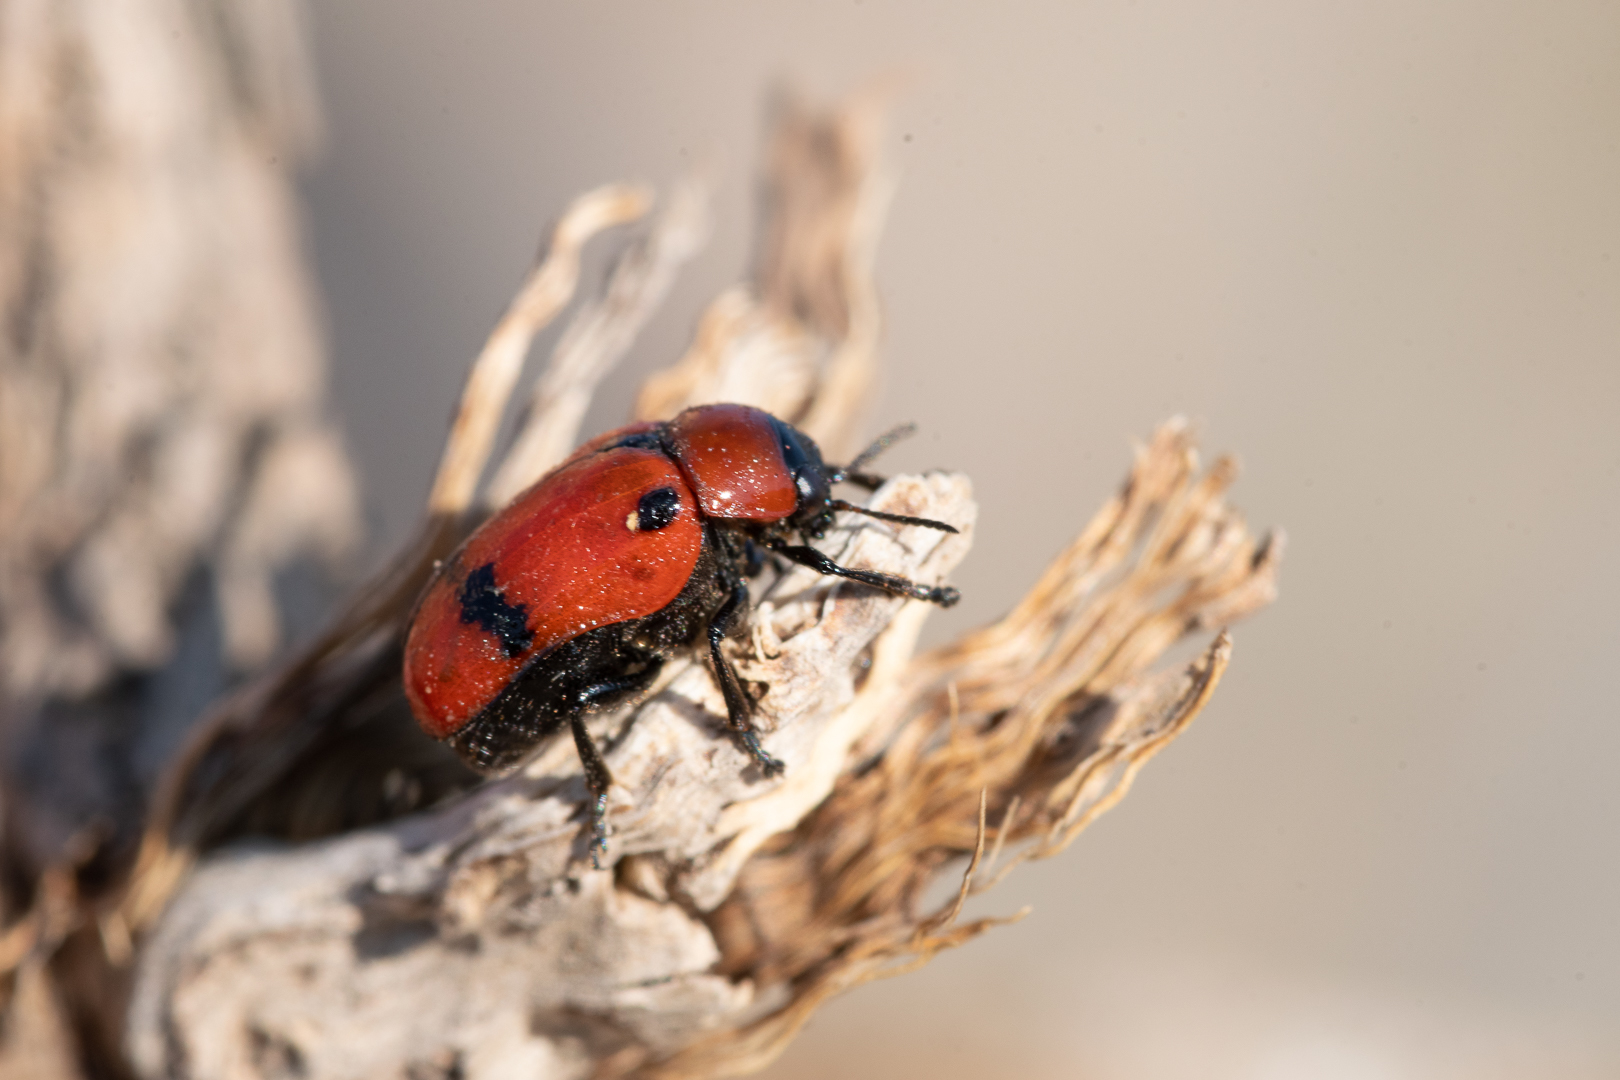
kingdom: Animalia
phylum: Arthropoda
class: Insecta
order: Coleoptera
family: Chrysomelidae
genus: Dachrys
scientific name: Dachrys
